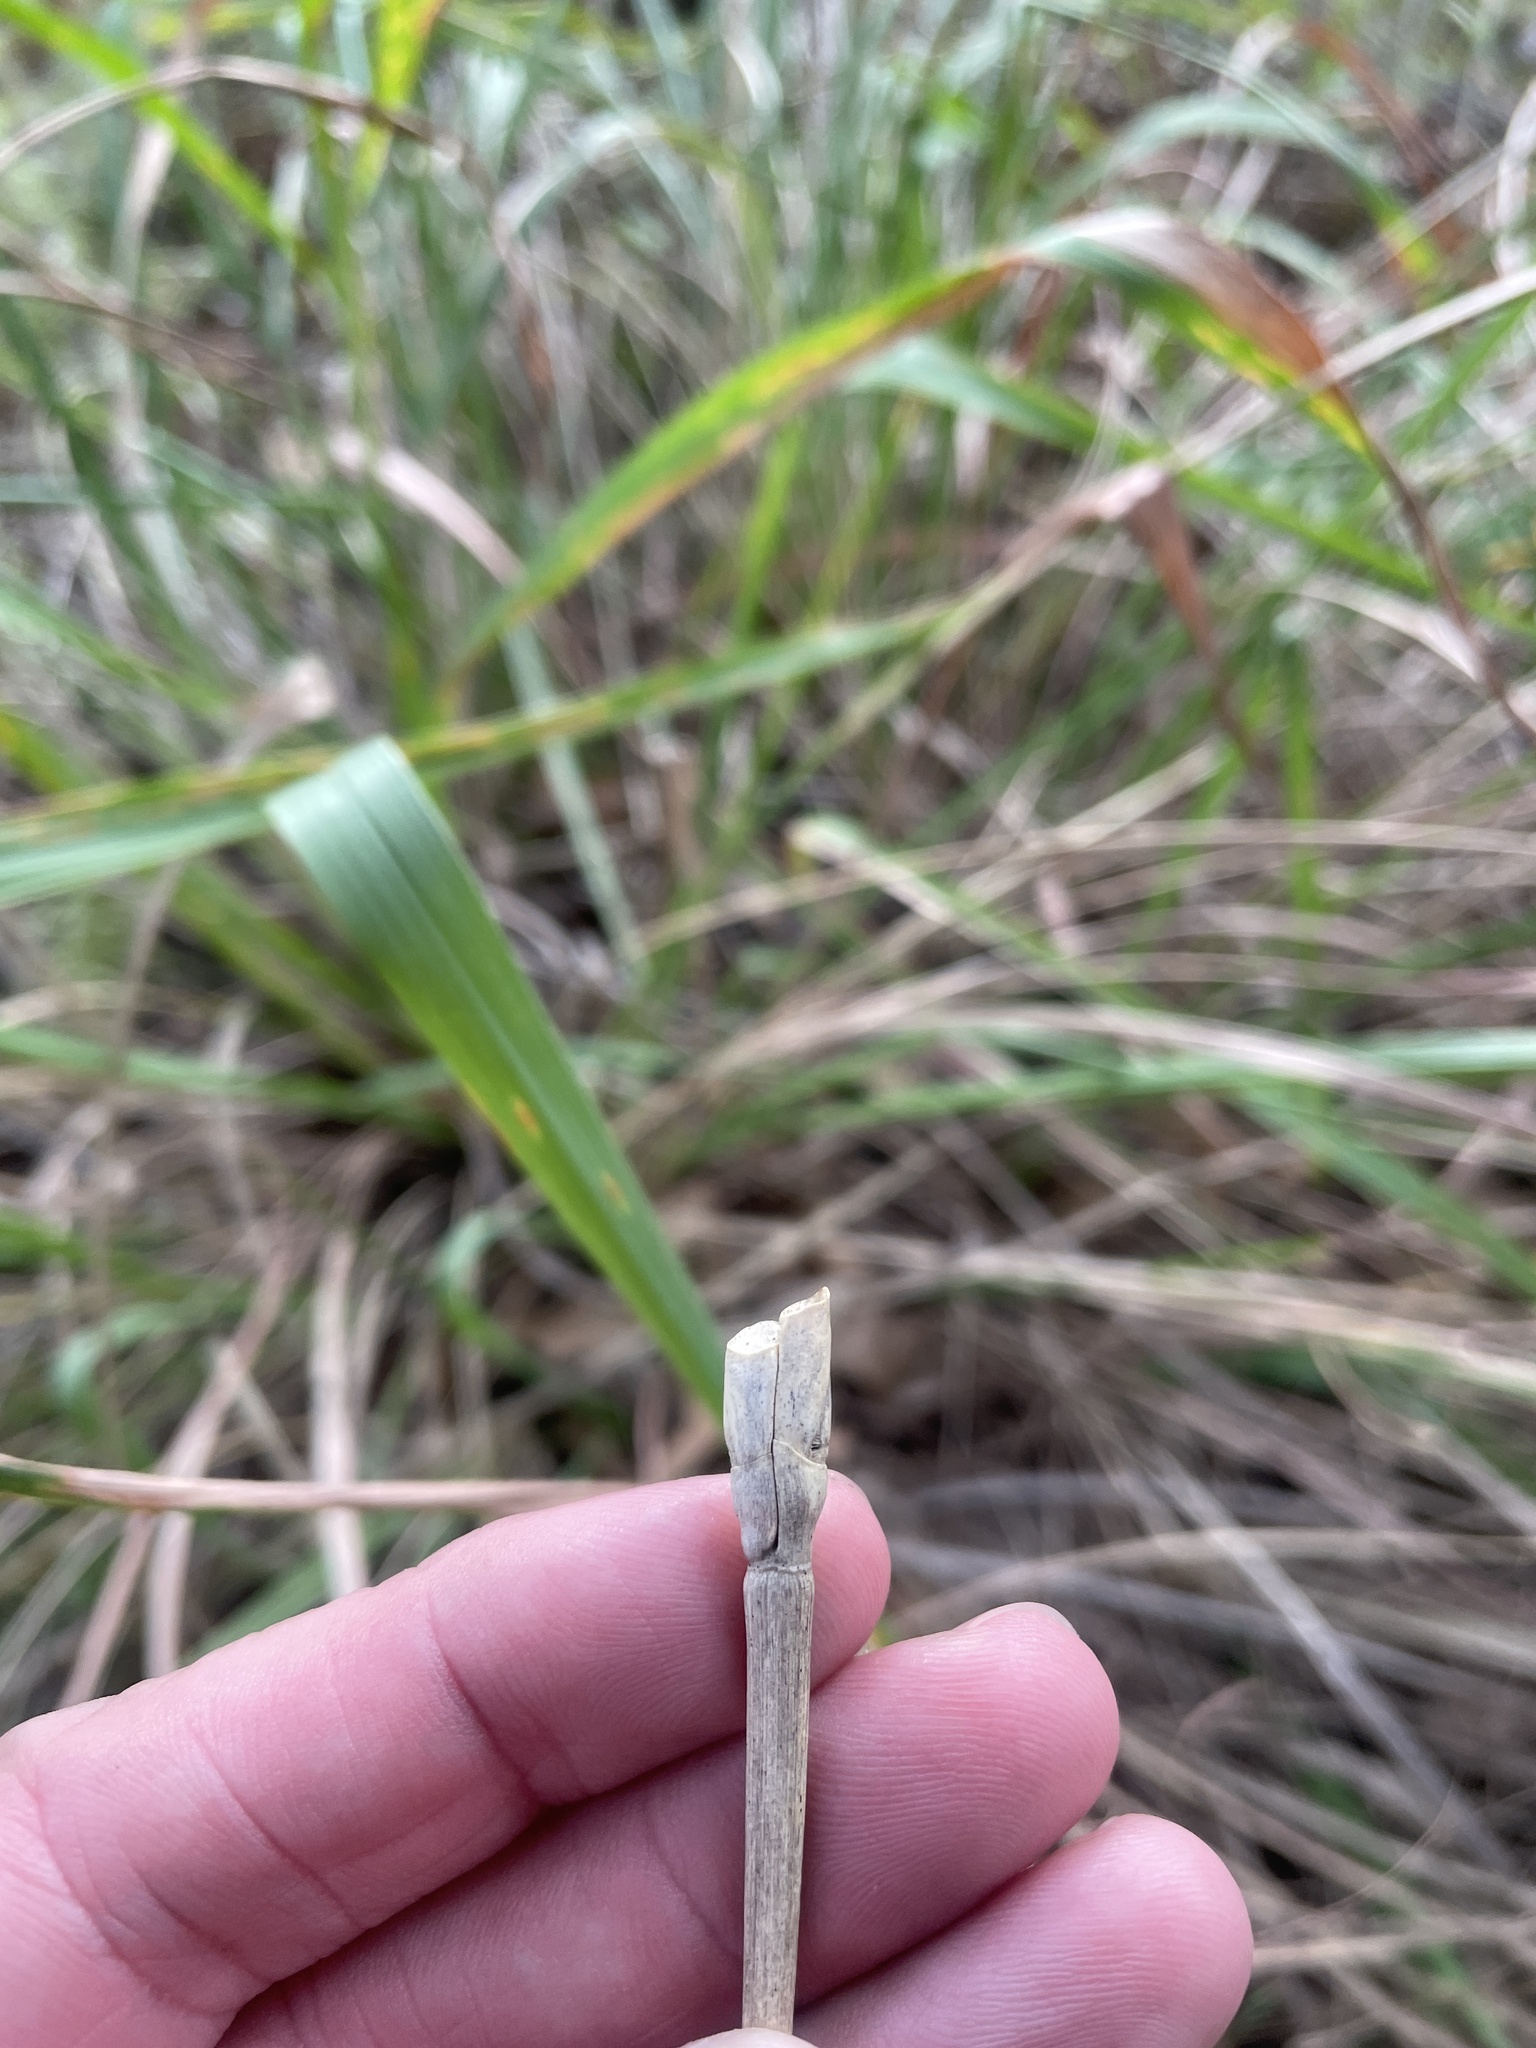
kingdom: Plantae
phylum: Tracheophyta
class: Liliopsida
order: Poales
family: Poaceae
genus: Tripsacum
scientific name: Tripsacum dactyloides
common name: Buffalo-grass
